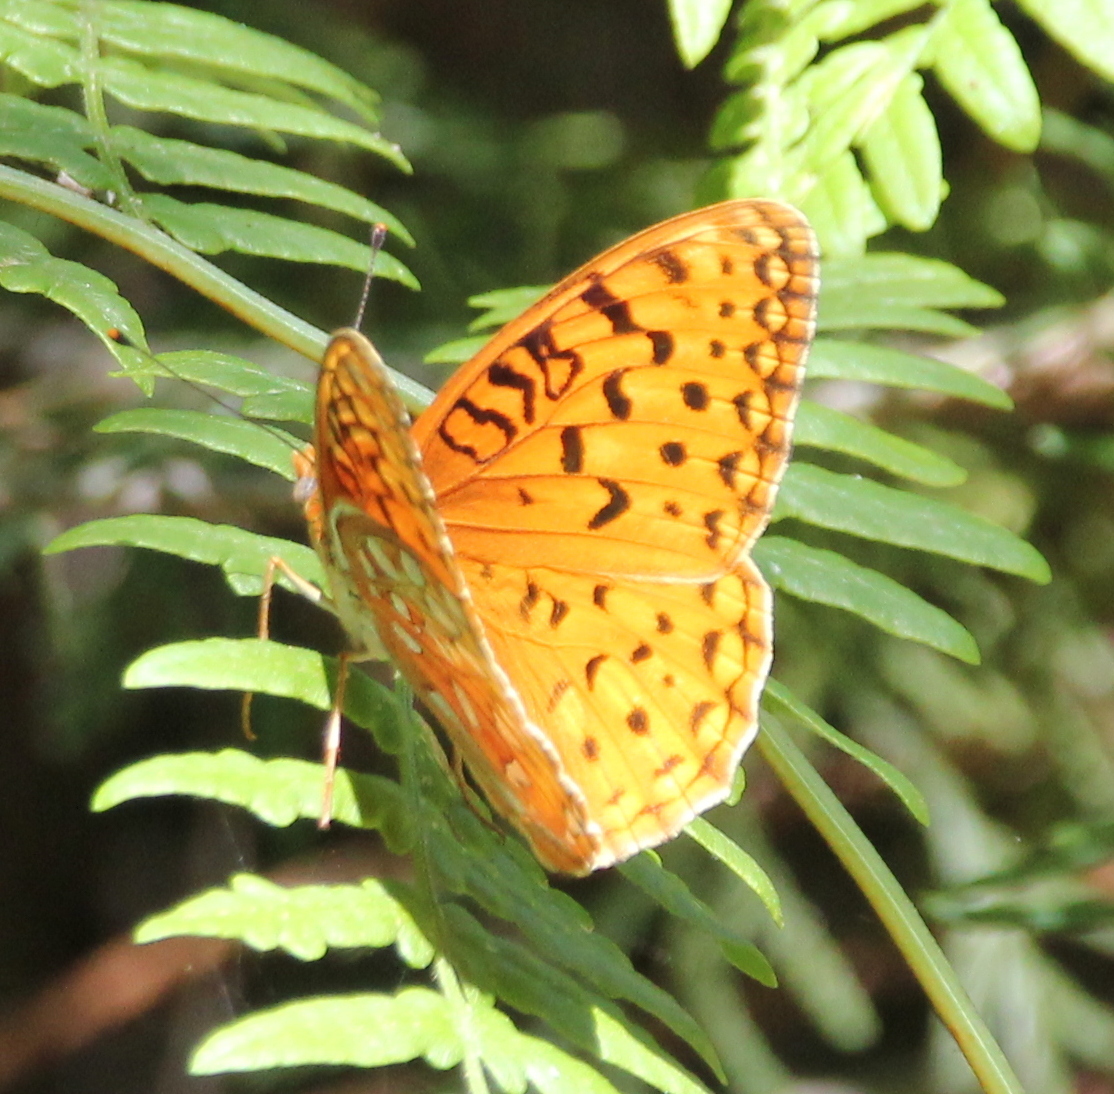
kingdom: Animalia
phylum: Arthropoda
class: Insecta
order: Lepidoptera
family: Nymphalidae
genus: Argynnis
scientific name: Argynnis coronis
